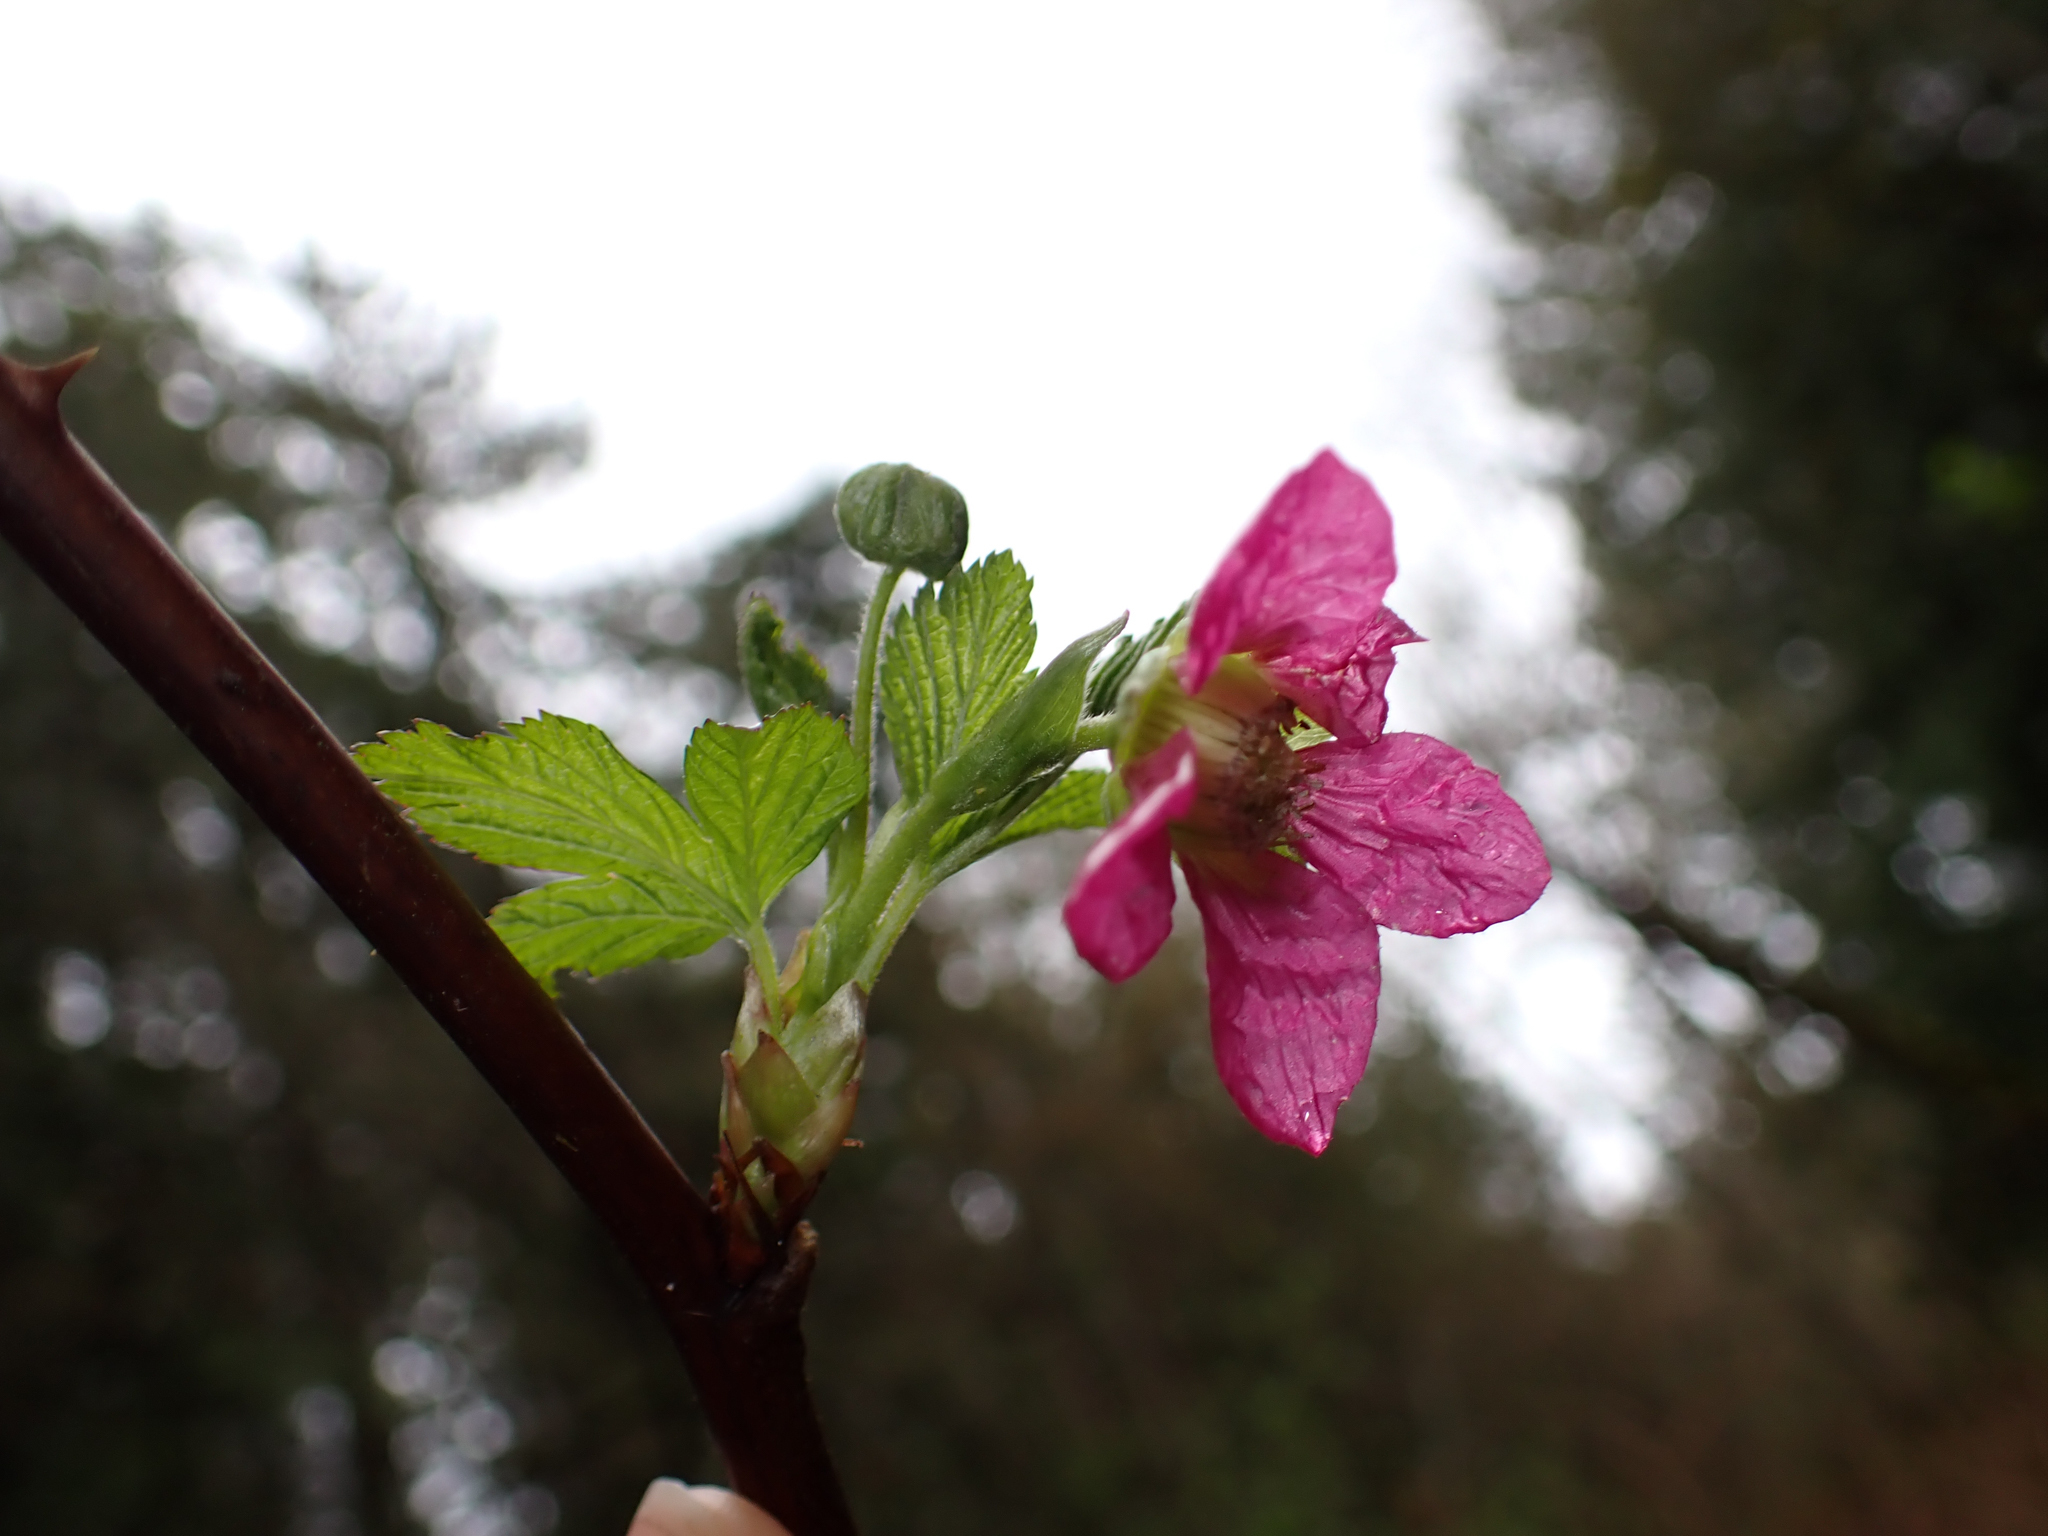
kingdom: Plantae
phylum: Tracheophyta
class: Magnoliopsida
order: Rosales
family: Rosaceae
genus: Rubus
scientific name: Rubus spectabilis
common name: Salmonberry
